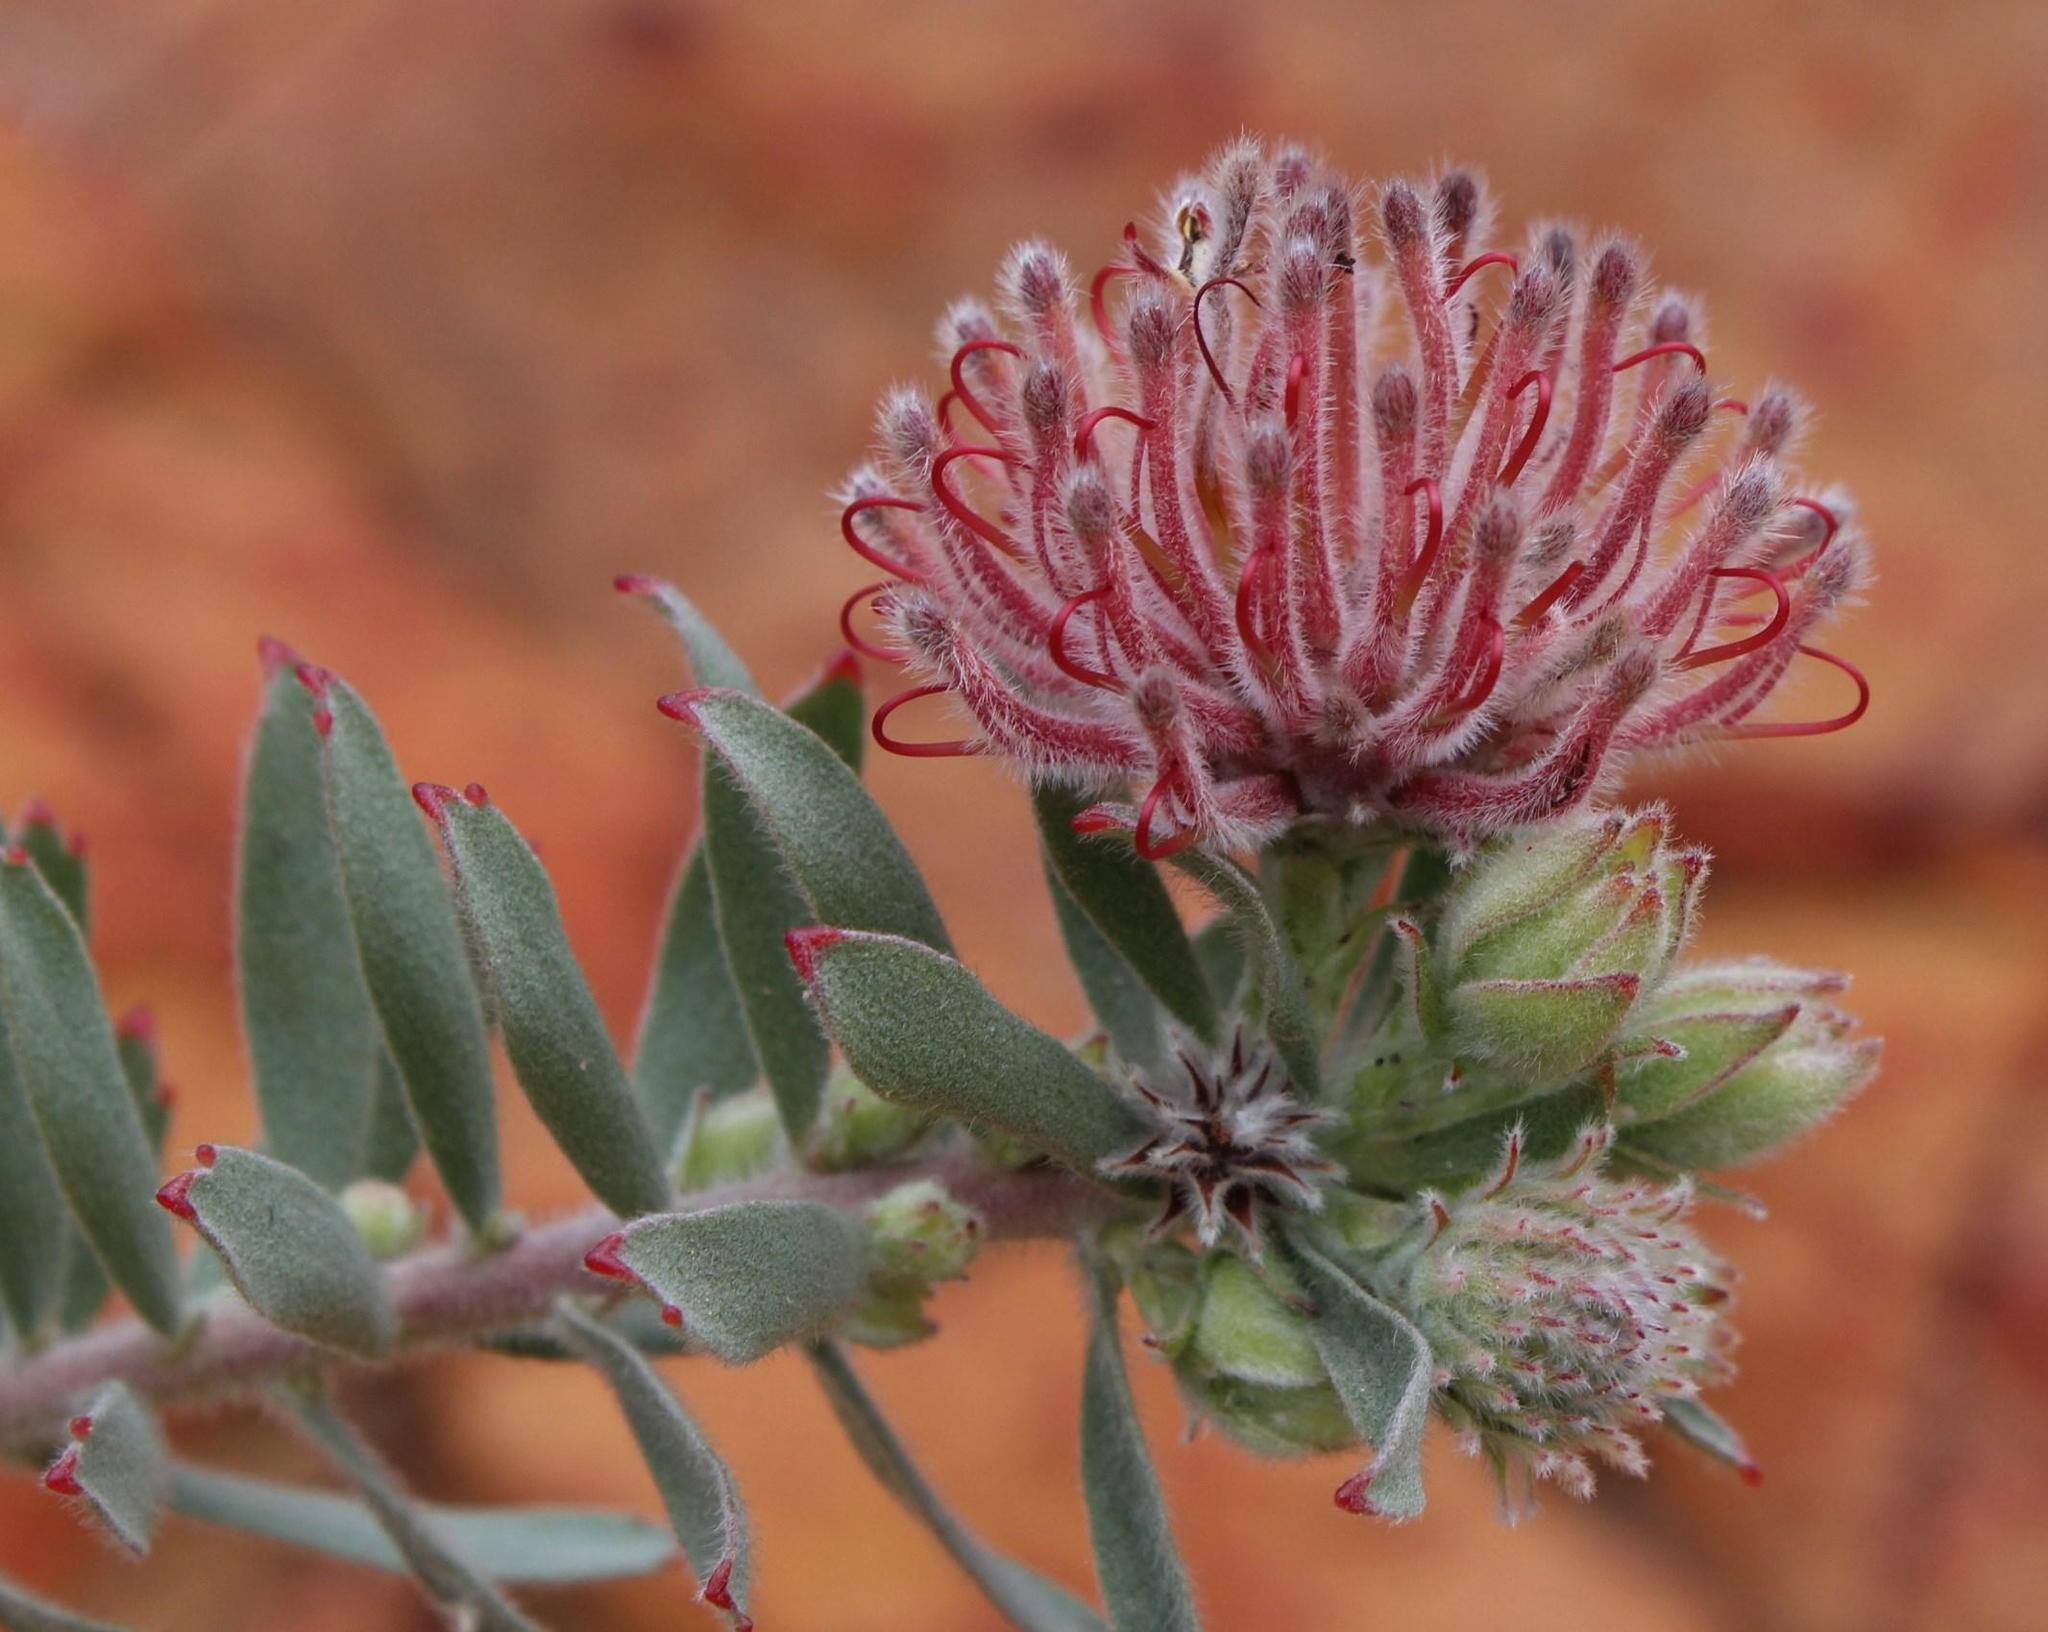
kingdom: Plantae
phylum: Tracheophyta
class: Magnoliopsida
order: Proteales
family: Proteaceae
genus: Leucospermum
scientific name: Leucospermum calligerum
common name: Arid pincushion
